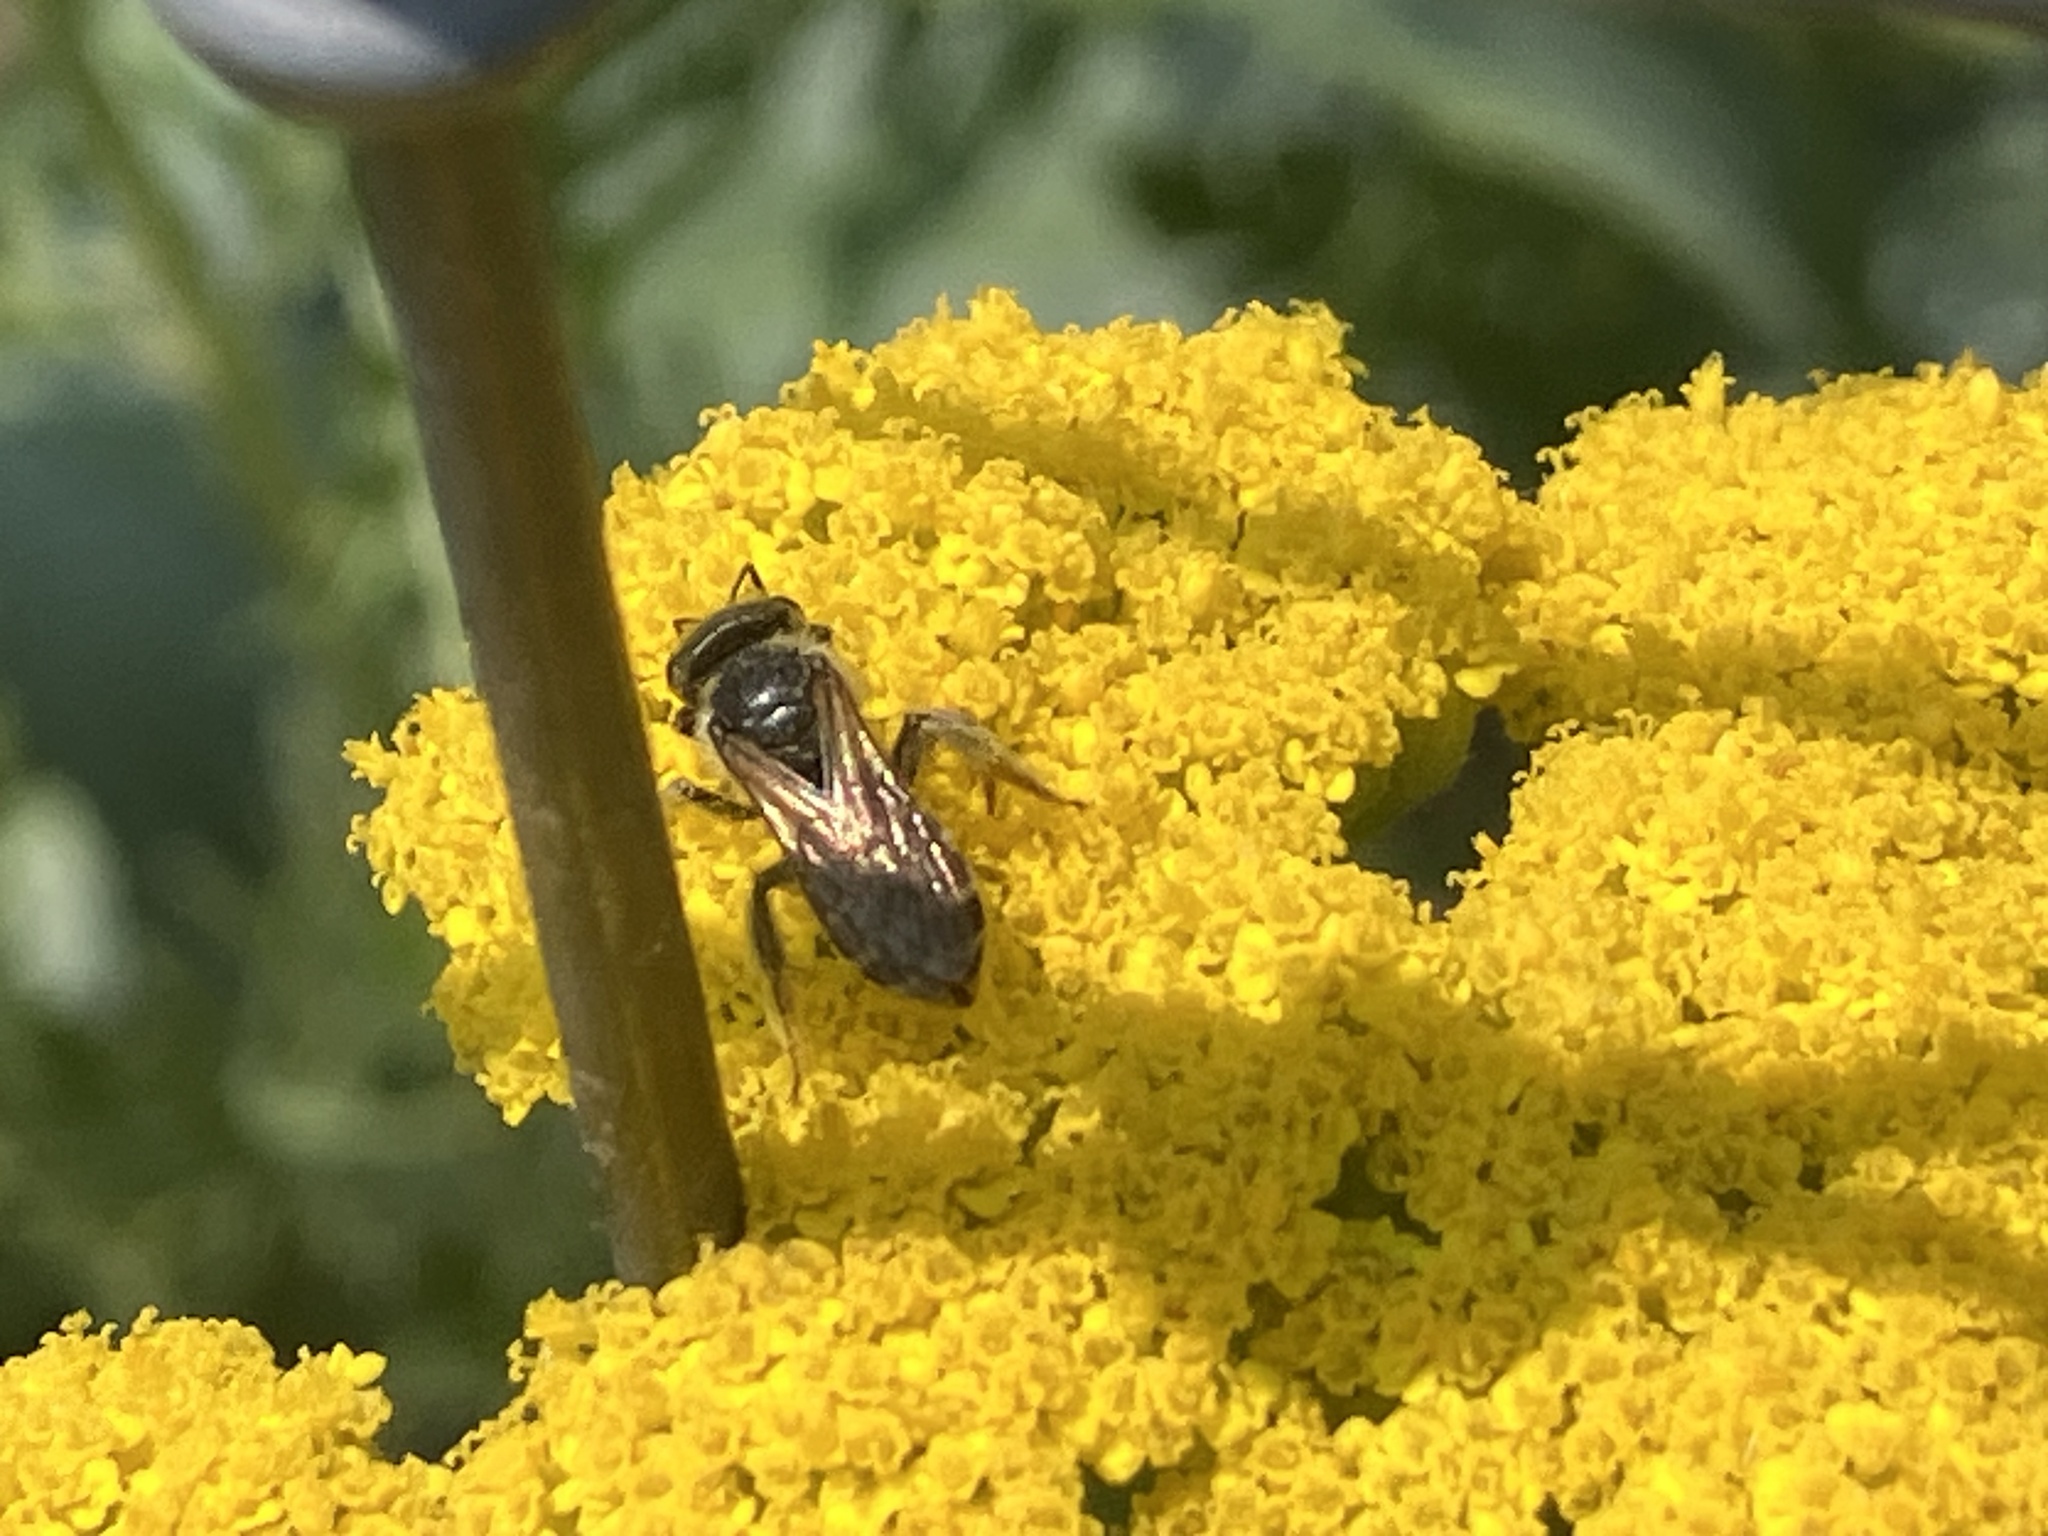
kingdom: Animalia
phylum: Arthropoda
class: Insecta
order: Hymenoptera
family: Halictidae
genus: Halictus
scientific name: Halictus ligatus
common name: Ligated furrow bee
